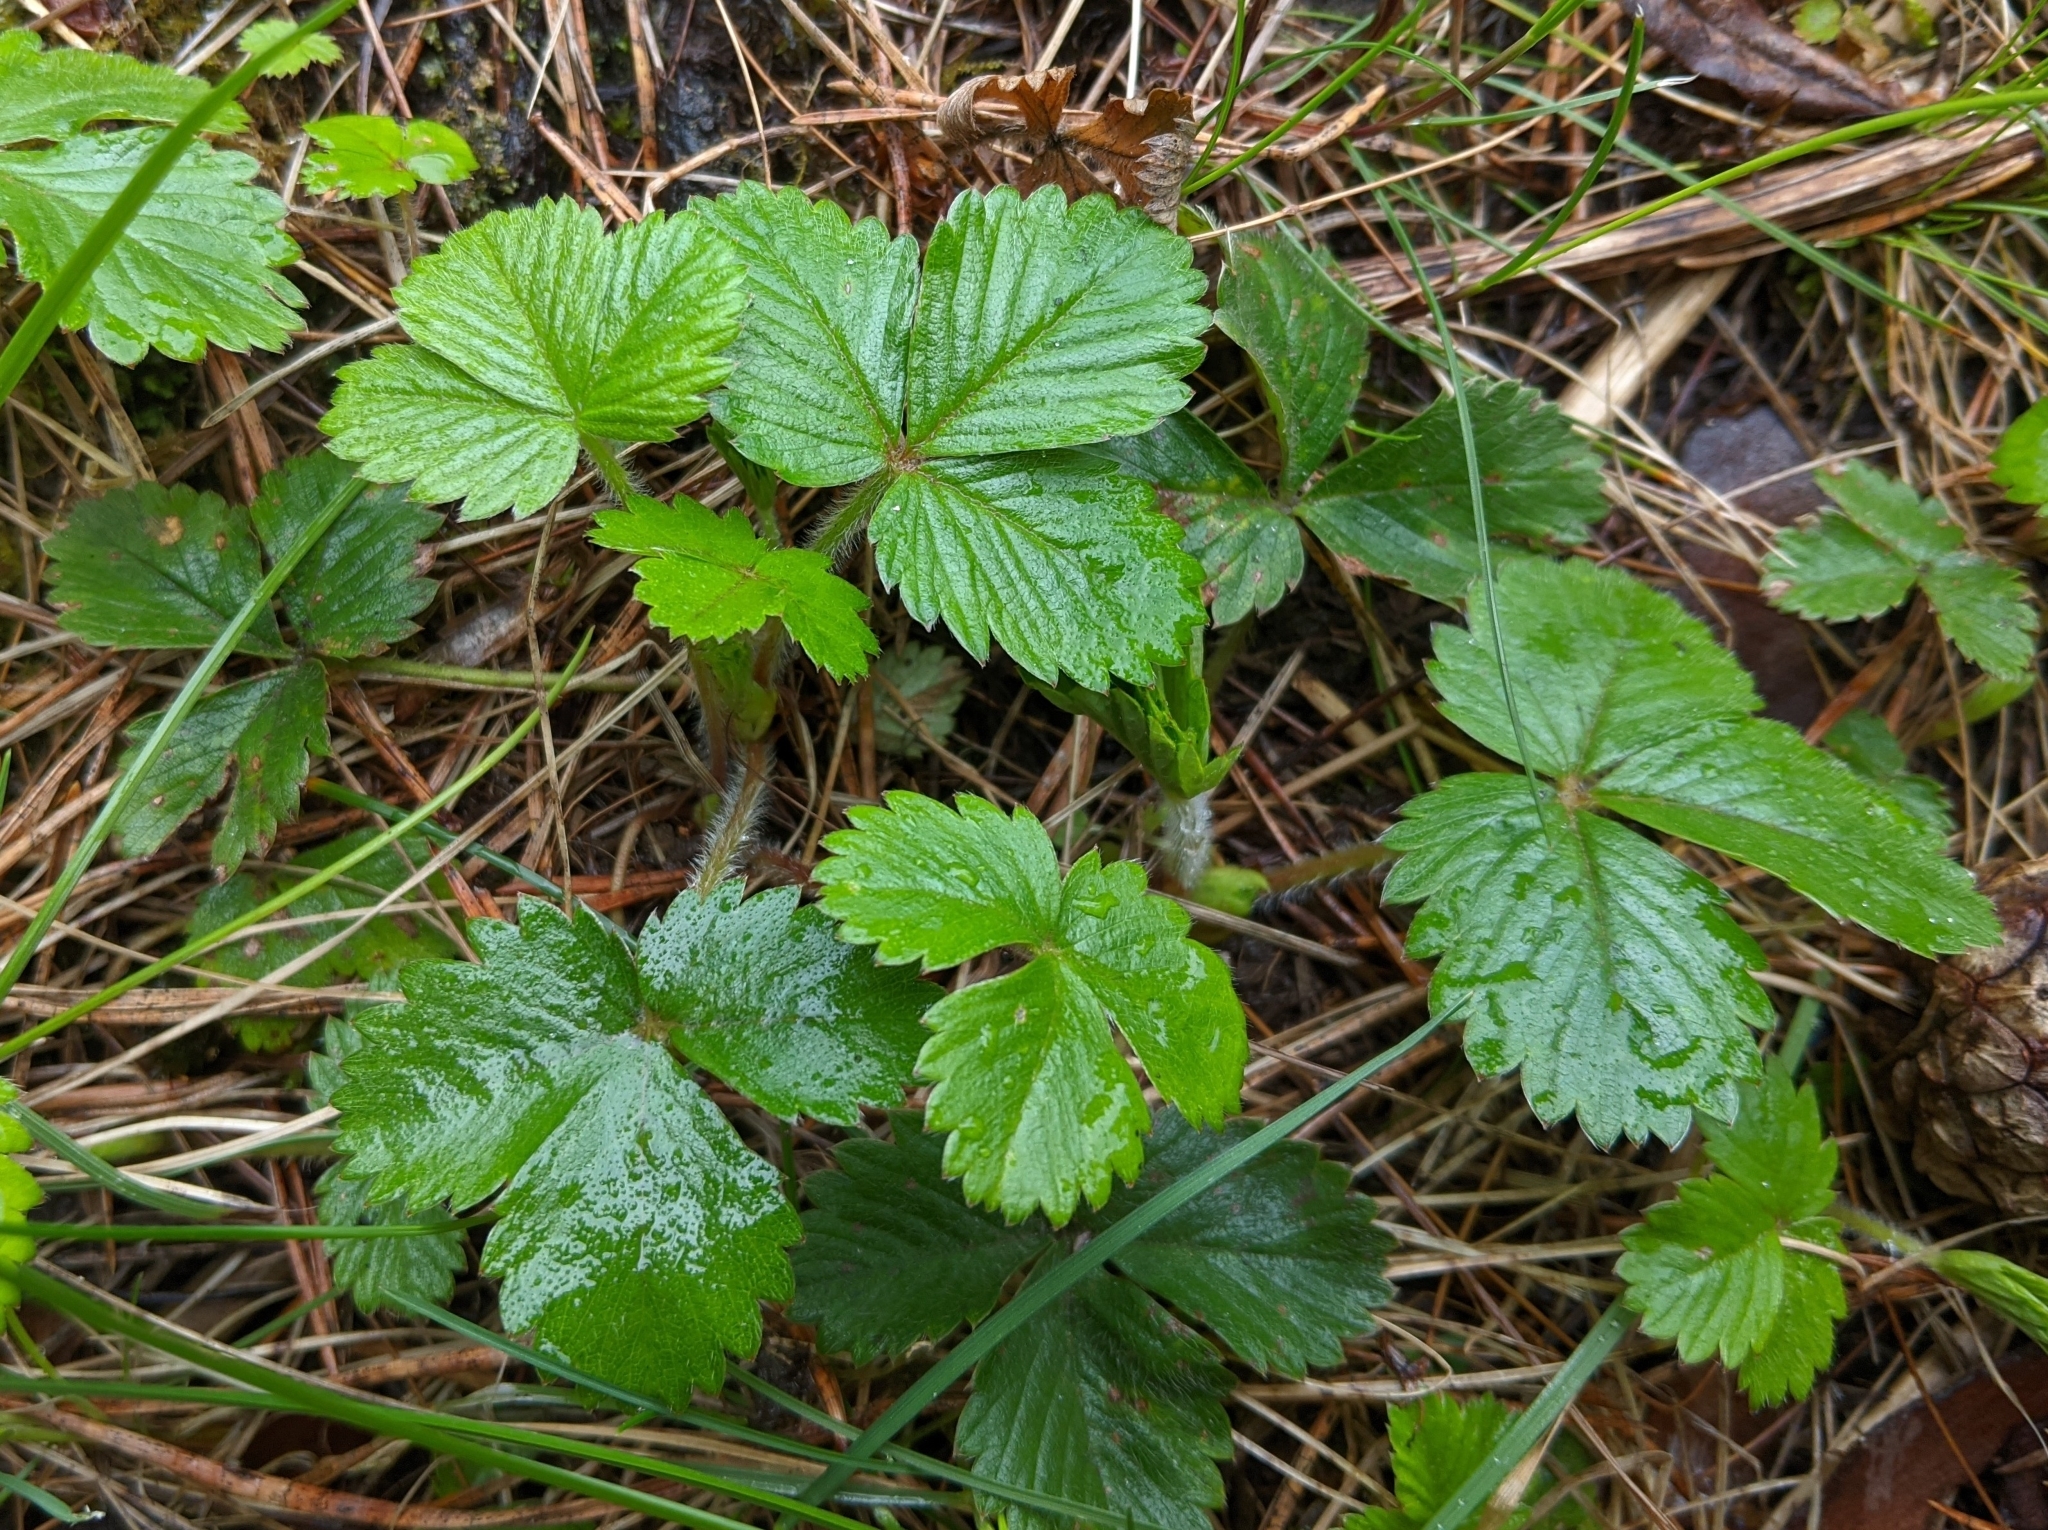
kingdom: Plantae
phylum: Tracheophyta
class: Magnoliopsida
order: Rosales
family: Rosaceae
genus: Fragaria
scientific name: Fragaria vesca
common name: Wild strawberry
